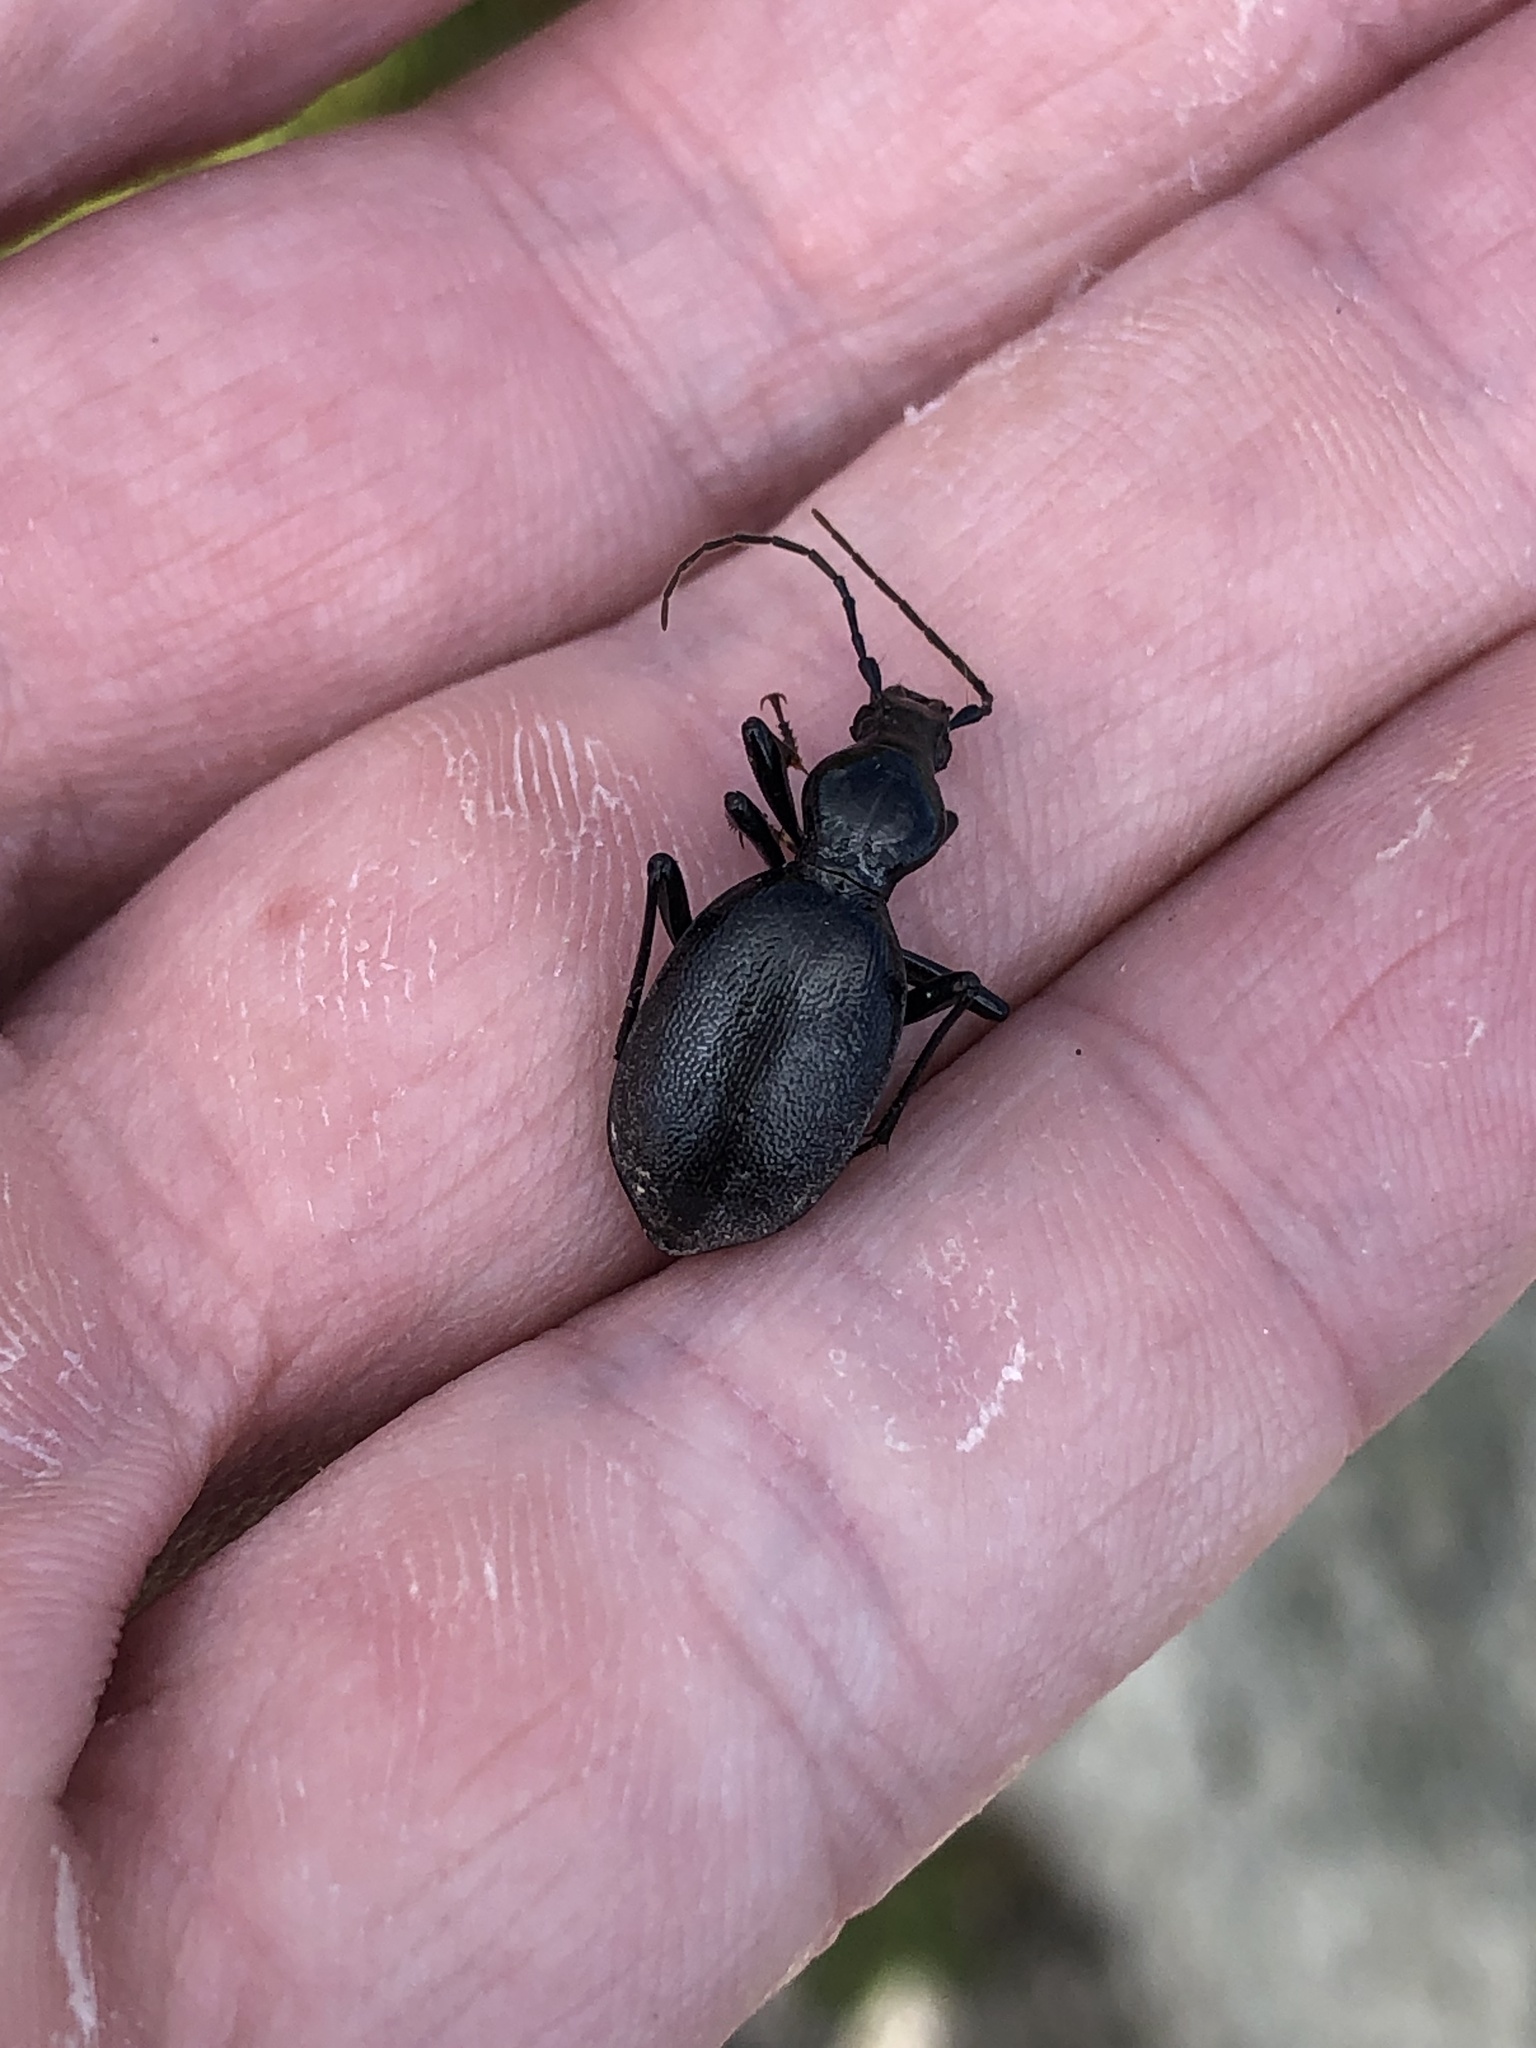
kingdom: Animalia
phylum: Arthropoda
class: Insecta
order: Coleoptera
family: Carabidae
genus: Cychrus
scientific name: Cychrus angustatus
